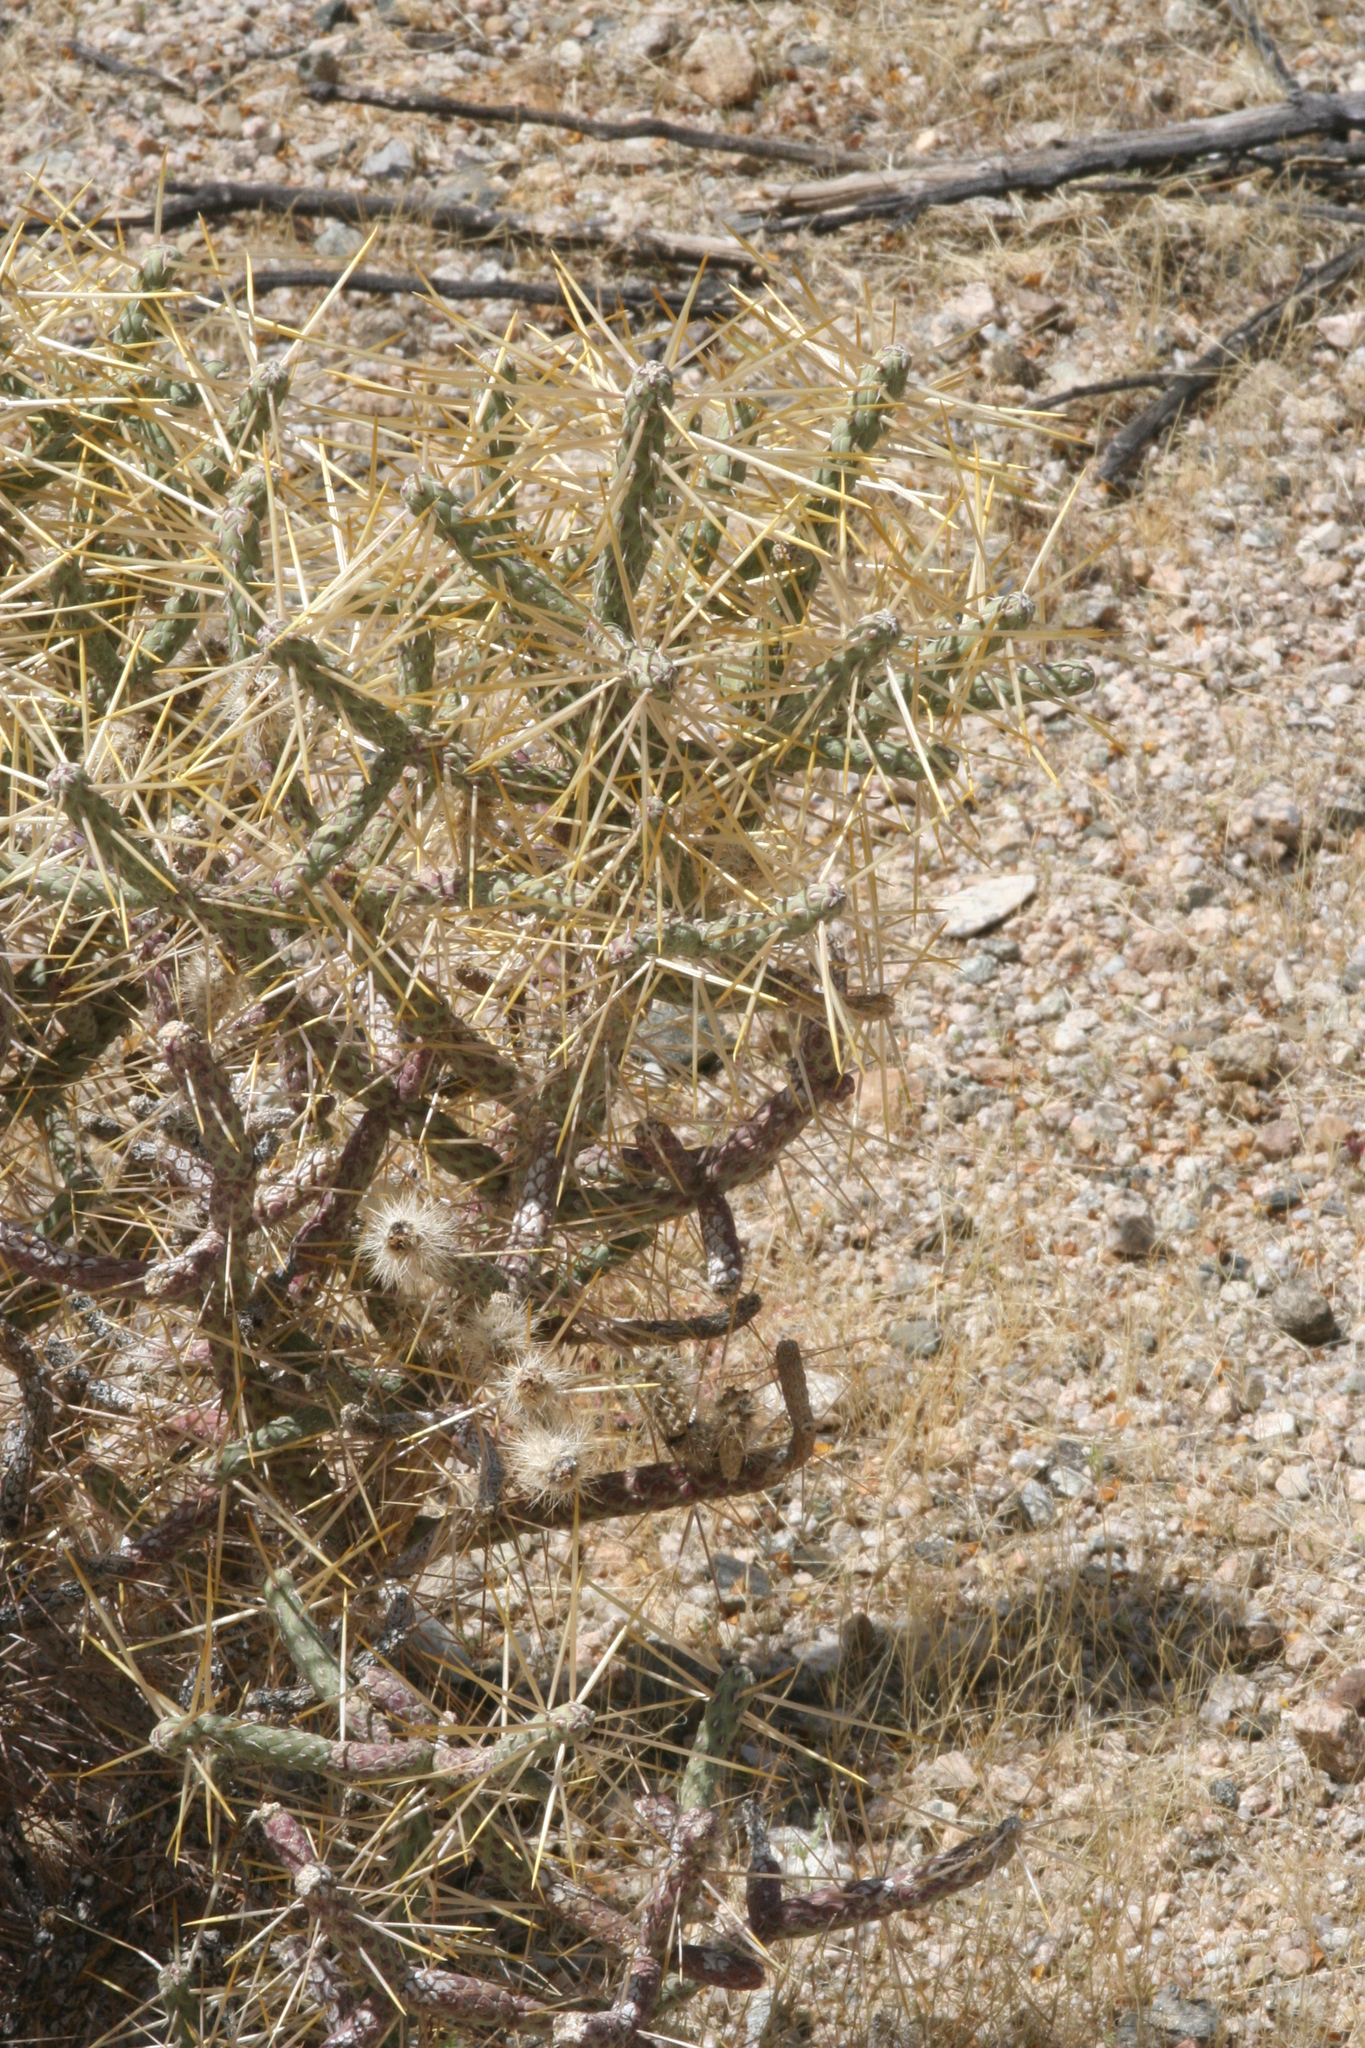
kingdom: Plantae
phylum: Tracheophyta
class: Magnoliopsida
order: Caryophyllales
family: Cactaceae
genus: Cylindropuntia
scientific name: Cylindropuntia fosbergii
